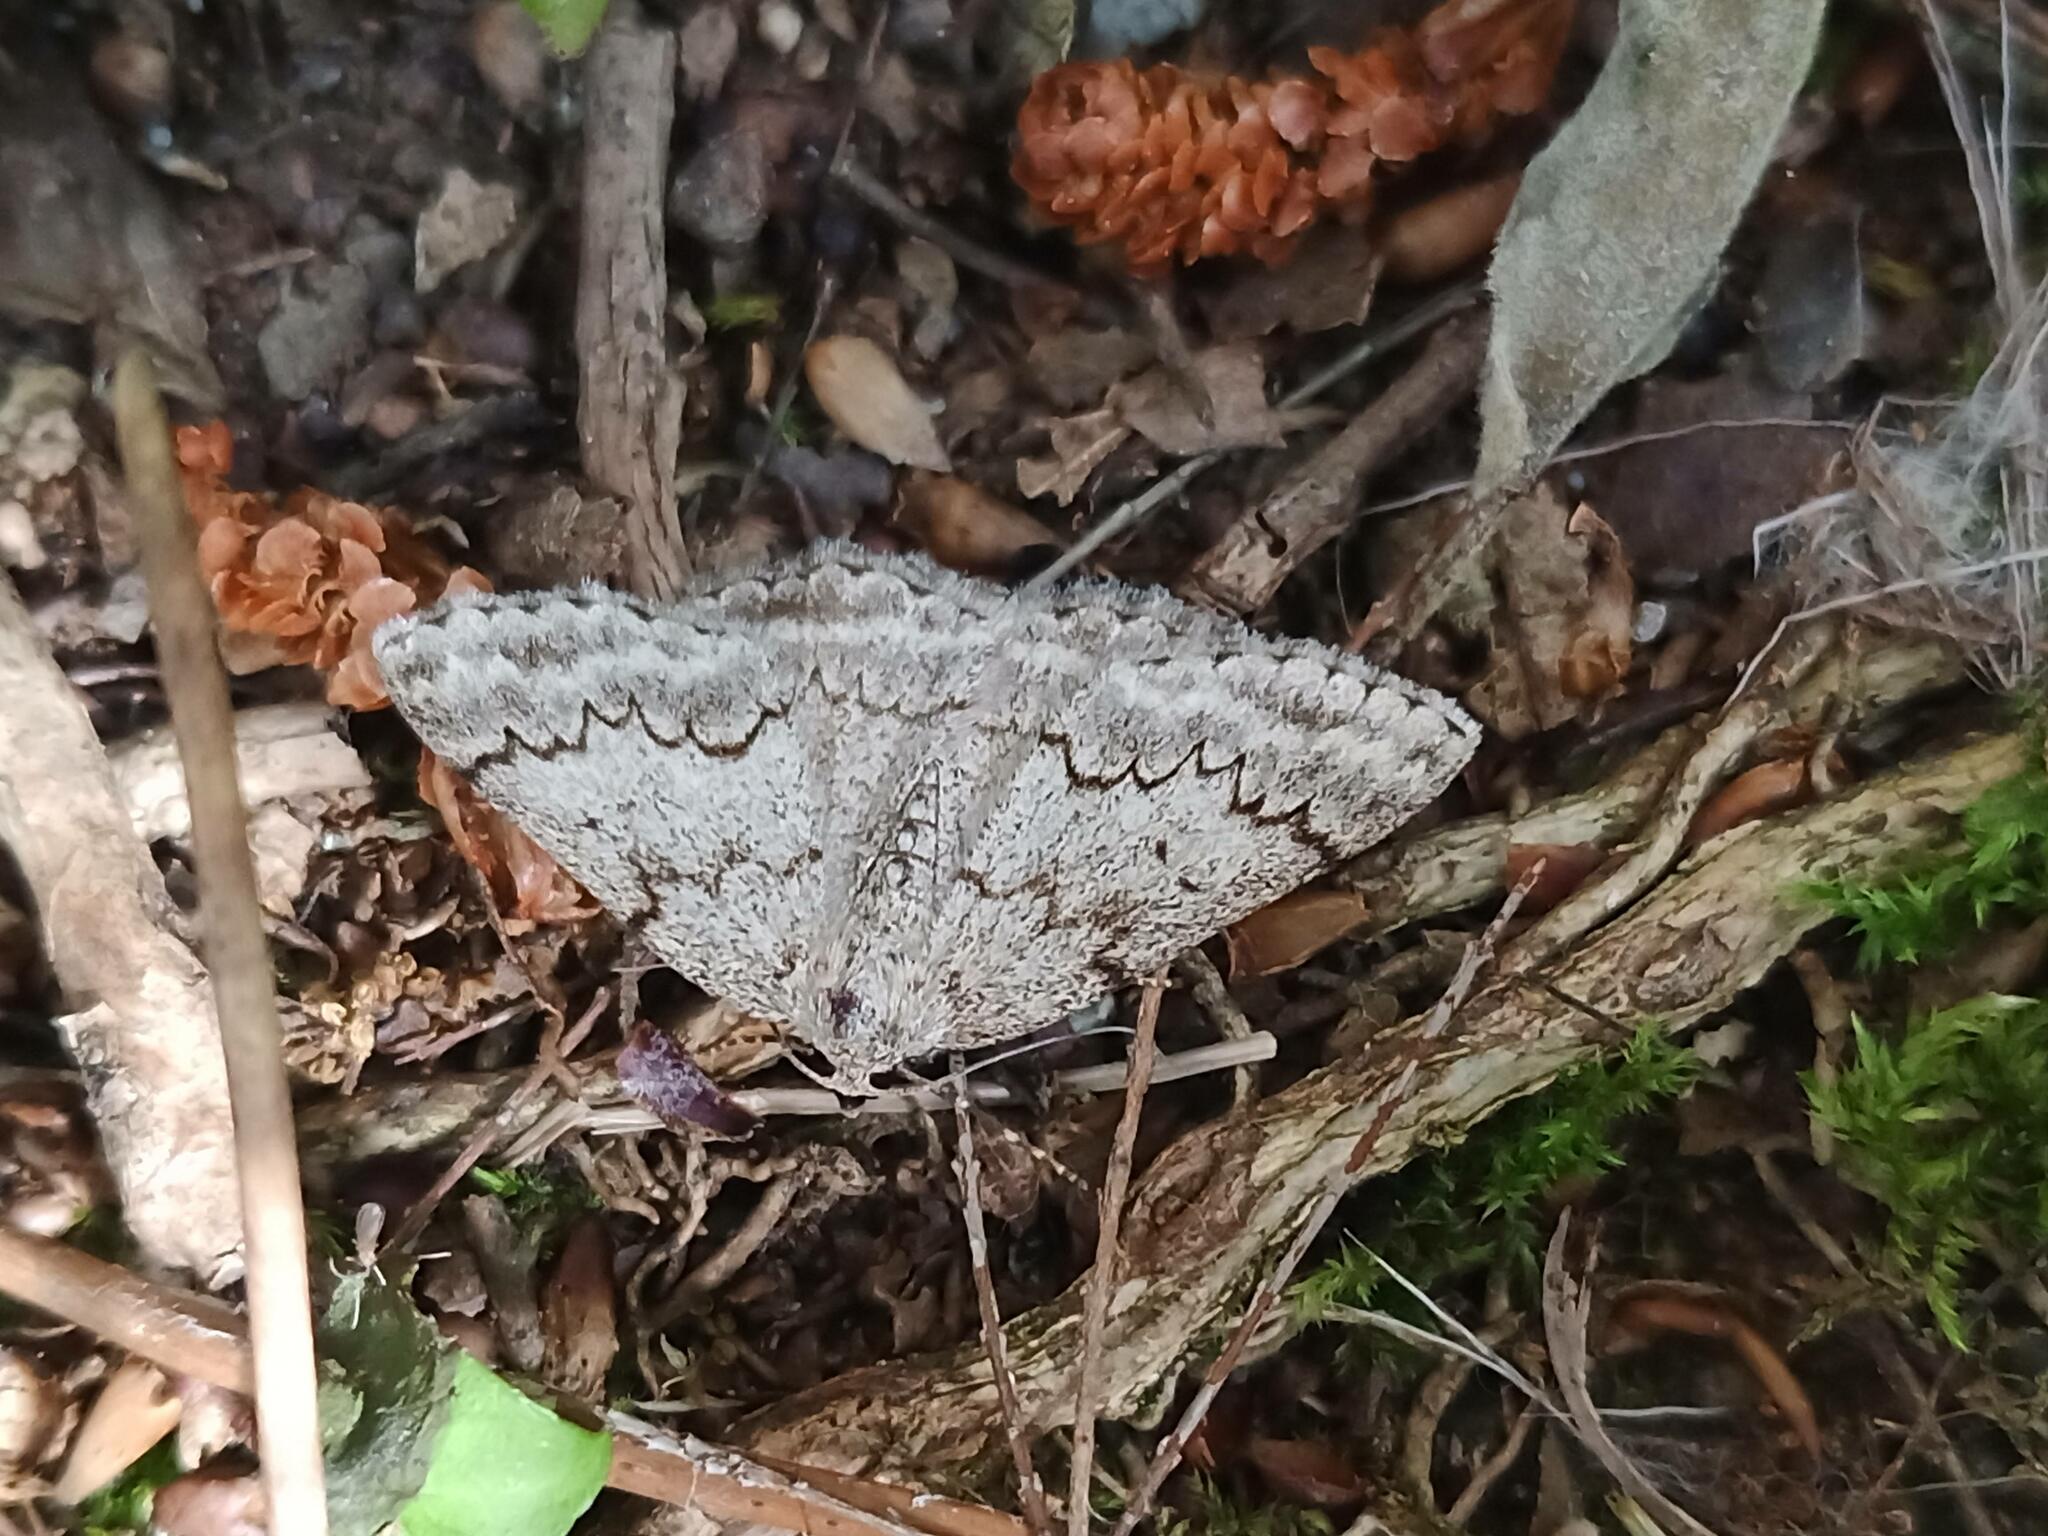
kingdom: Animalia
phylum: Arthropoda
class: Insecta
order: Lepidoptera
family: Geometridae
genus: Pseudoterpna
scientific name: Pseudoterpna coronillaria
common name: Jersey emerald
